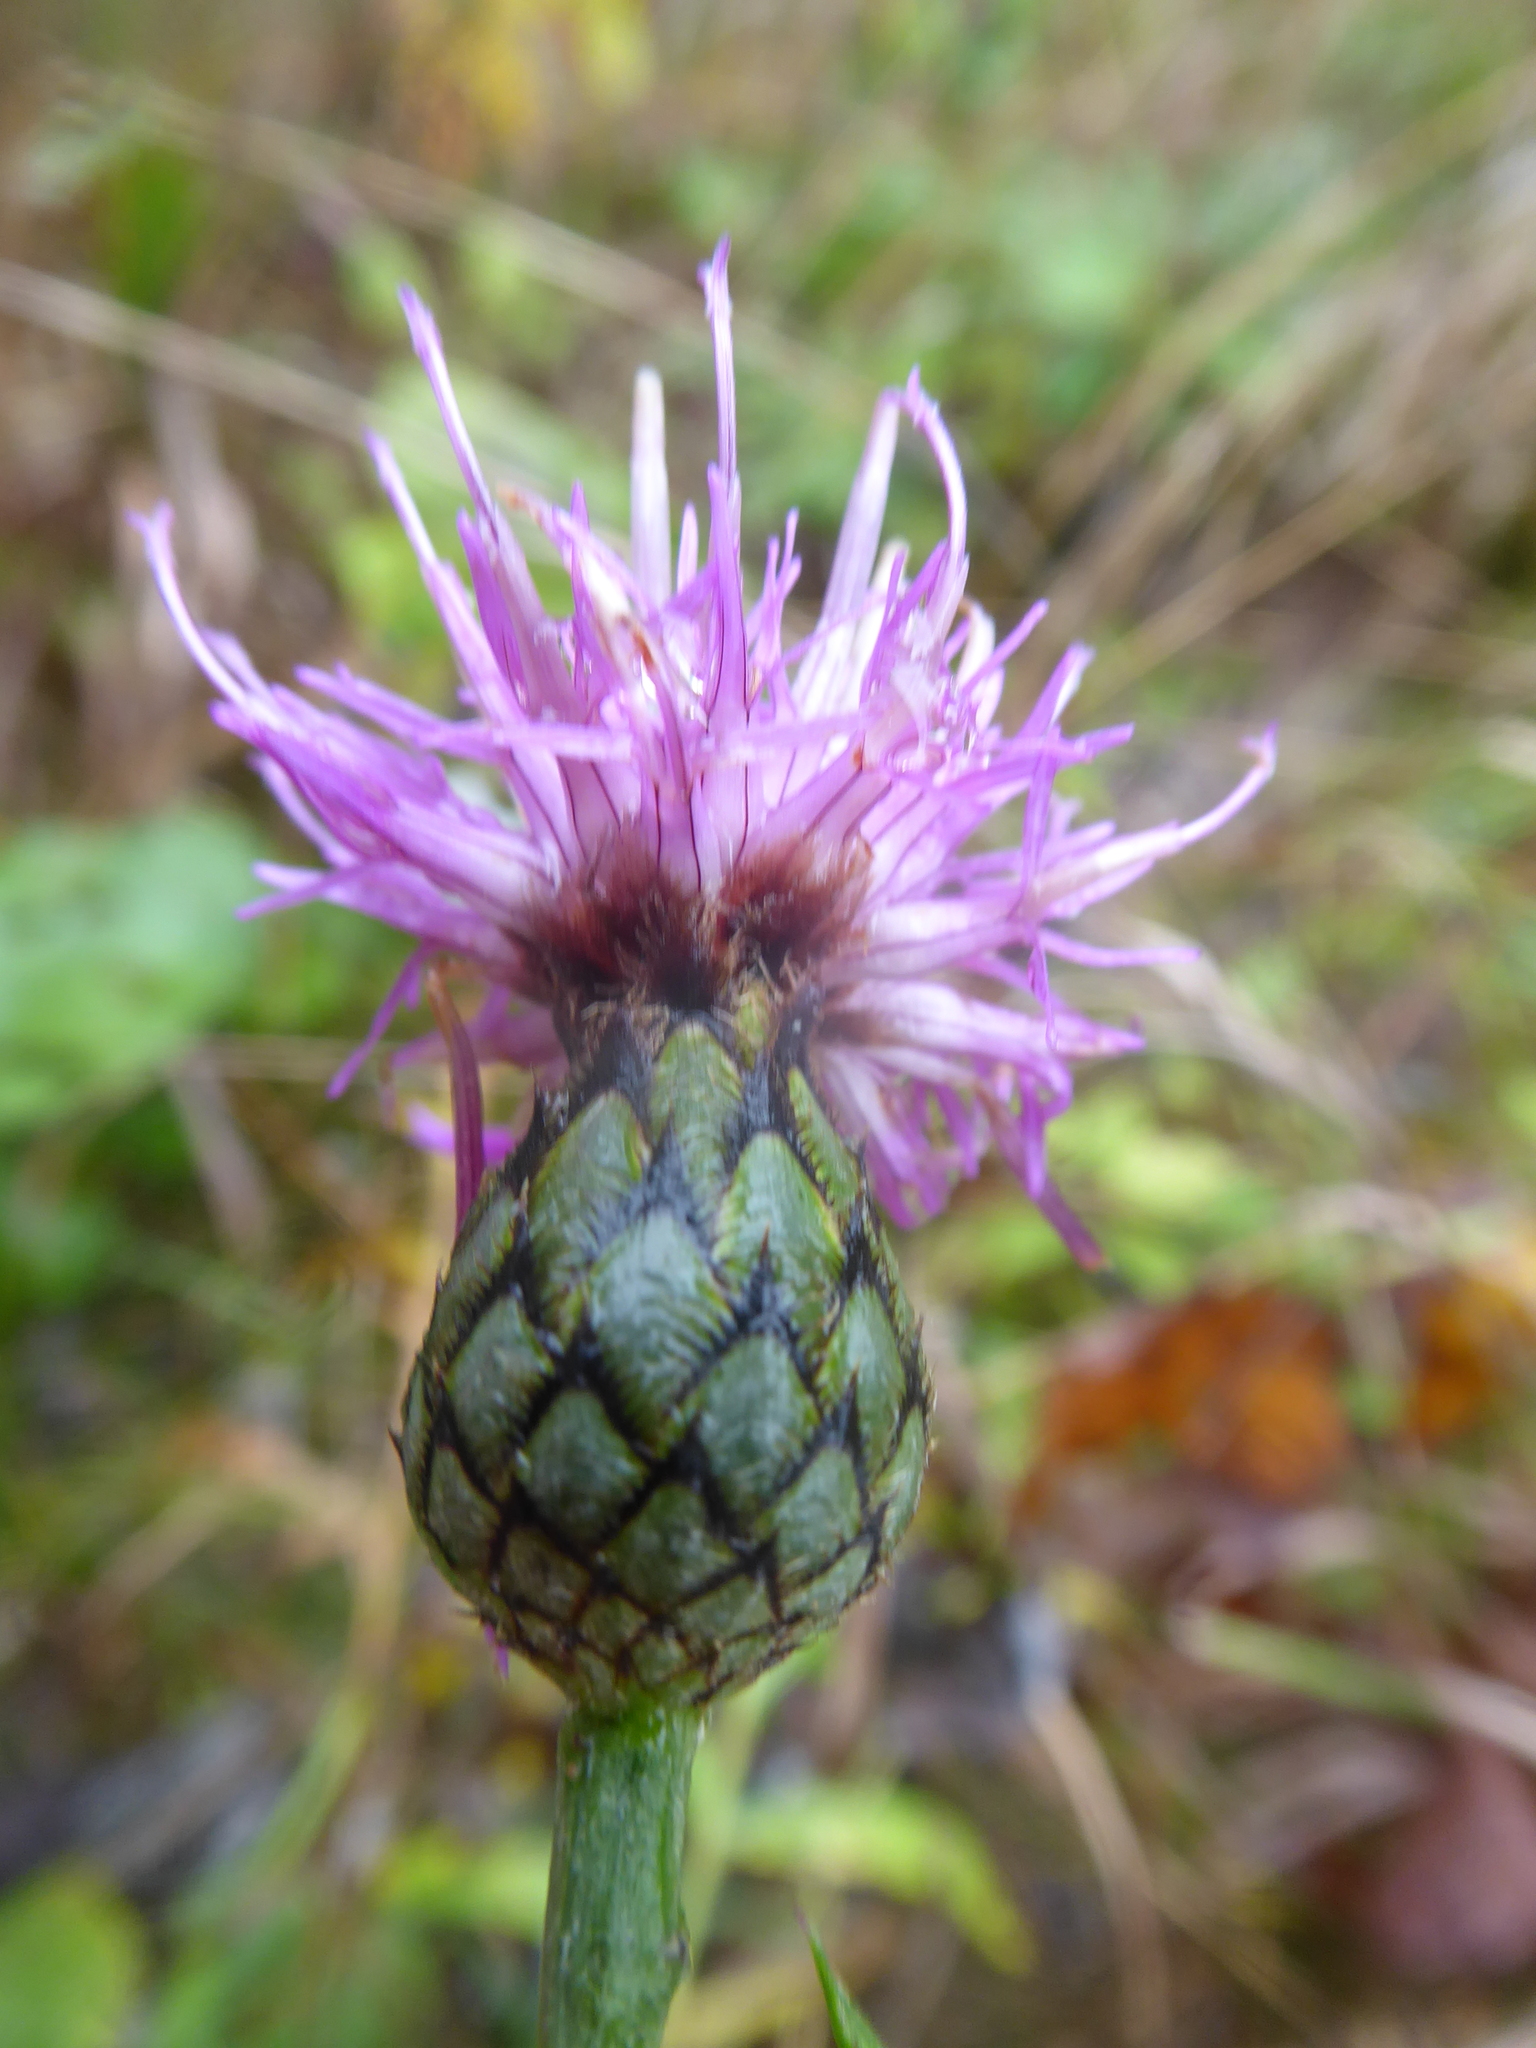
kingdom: Plantae
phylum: Tracheophyta
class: Magnoliopsida
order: Asterales
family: Asteraceae
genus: Centaurea
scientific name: Centaurea scabiosa
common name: Greater knapweed
